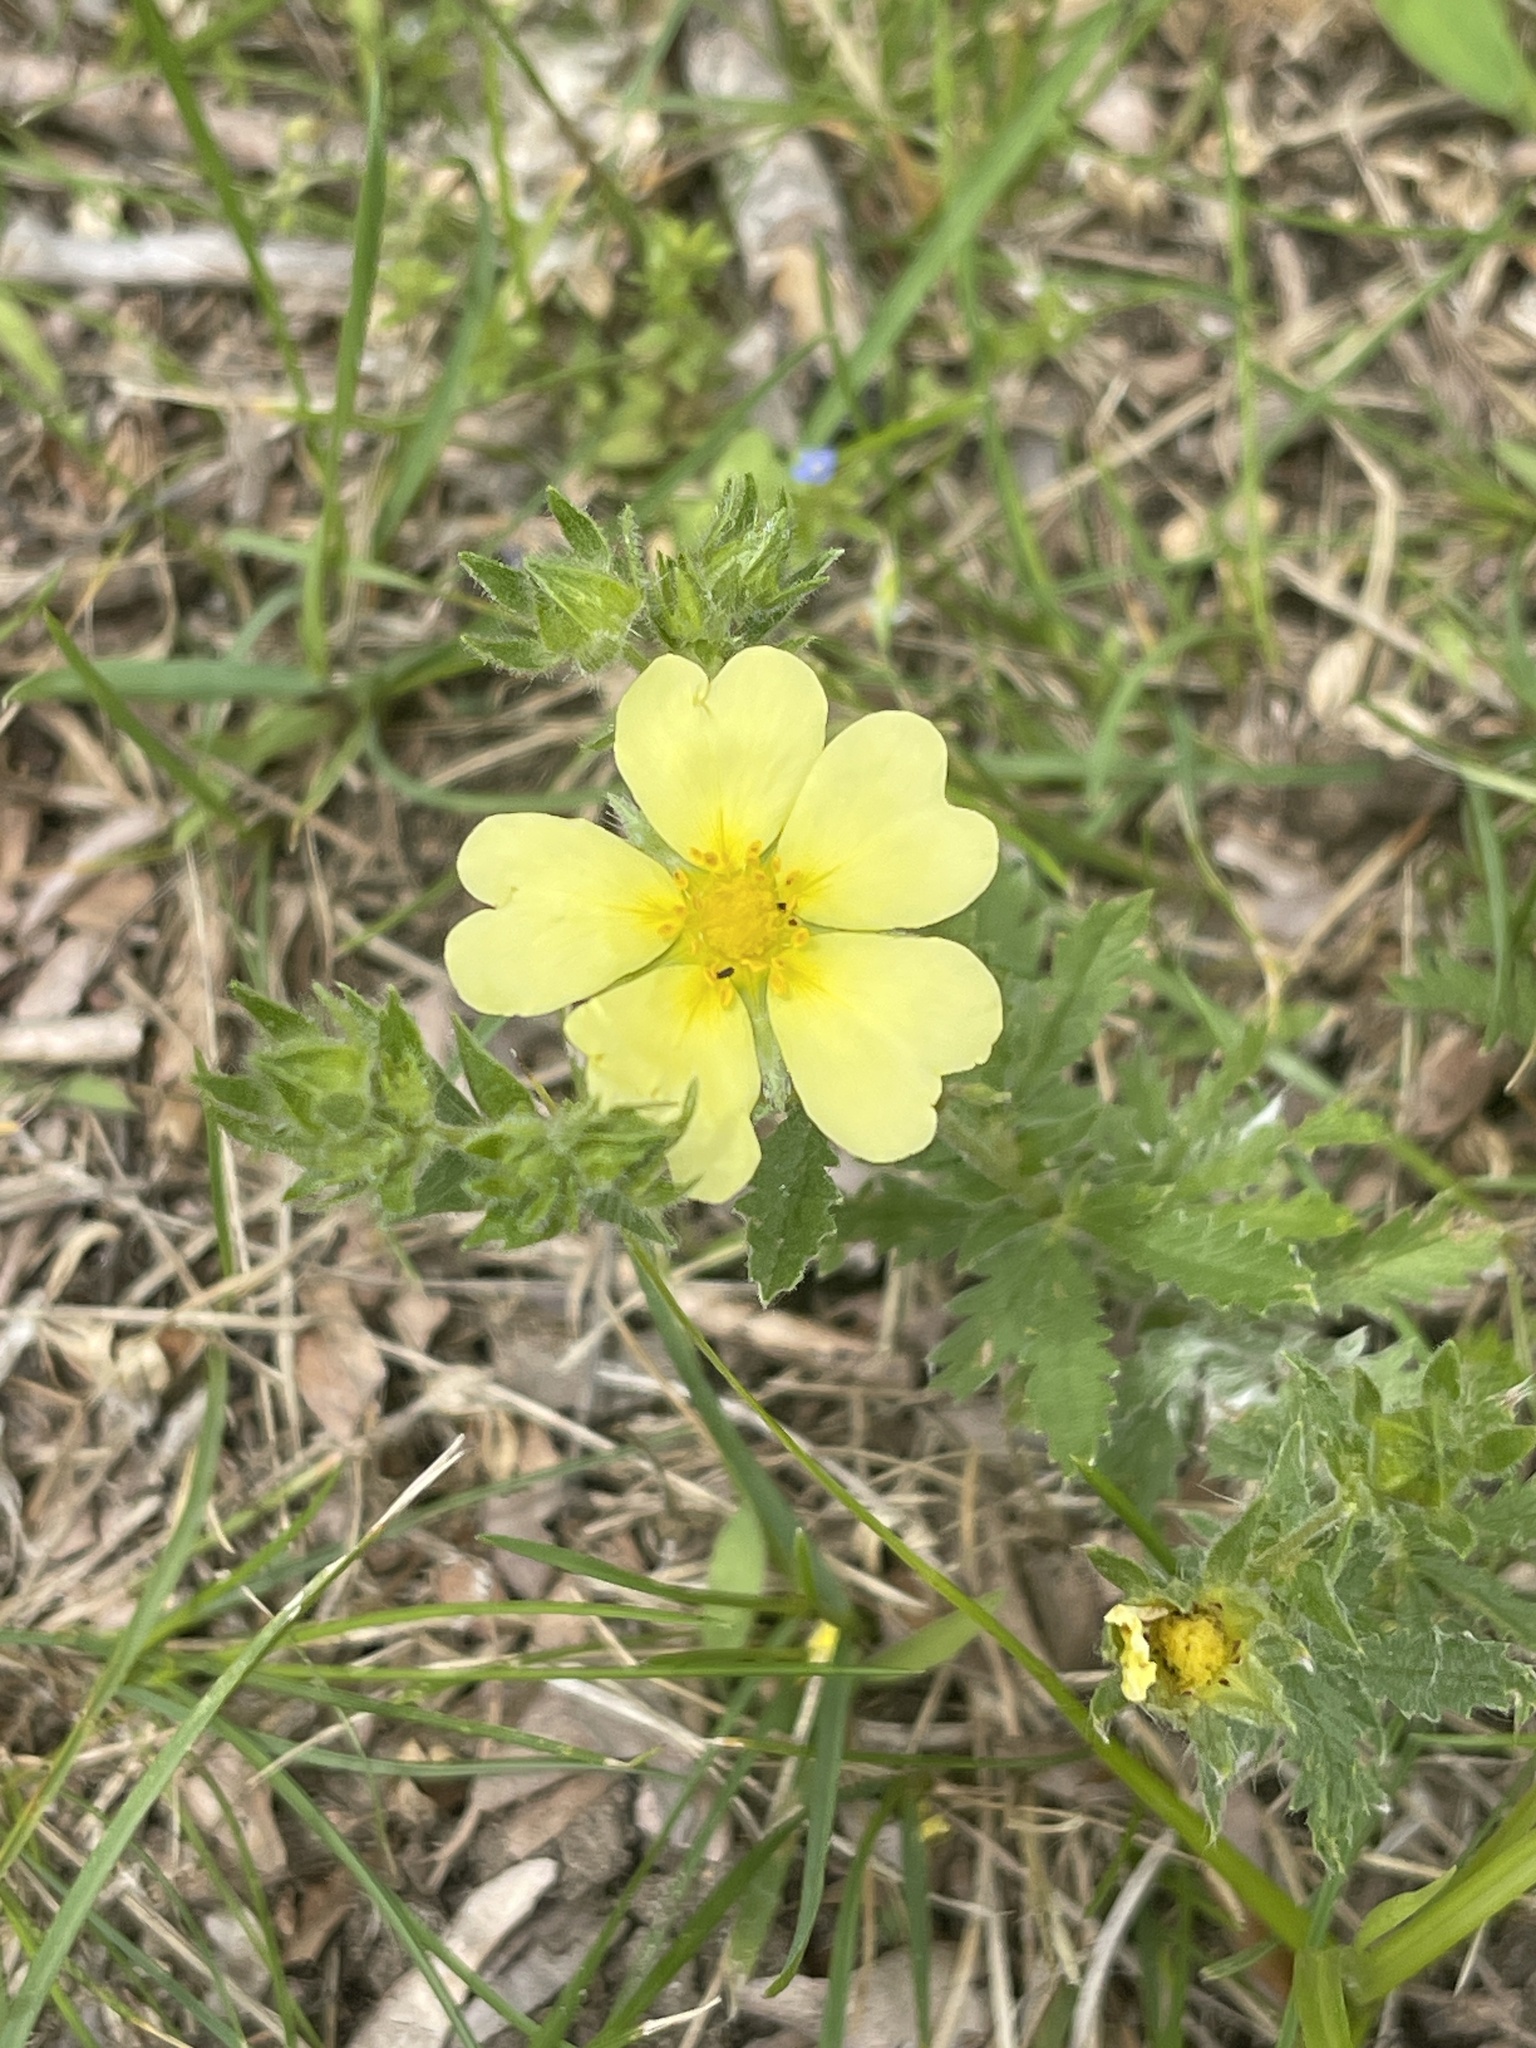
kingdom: Plantae
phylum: Tracheophyta
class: Magnoliopsida
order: Rosales
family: Rosaceae
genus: Potentilla
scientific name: Potentilla recta
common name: Sulphur cinquefoil
